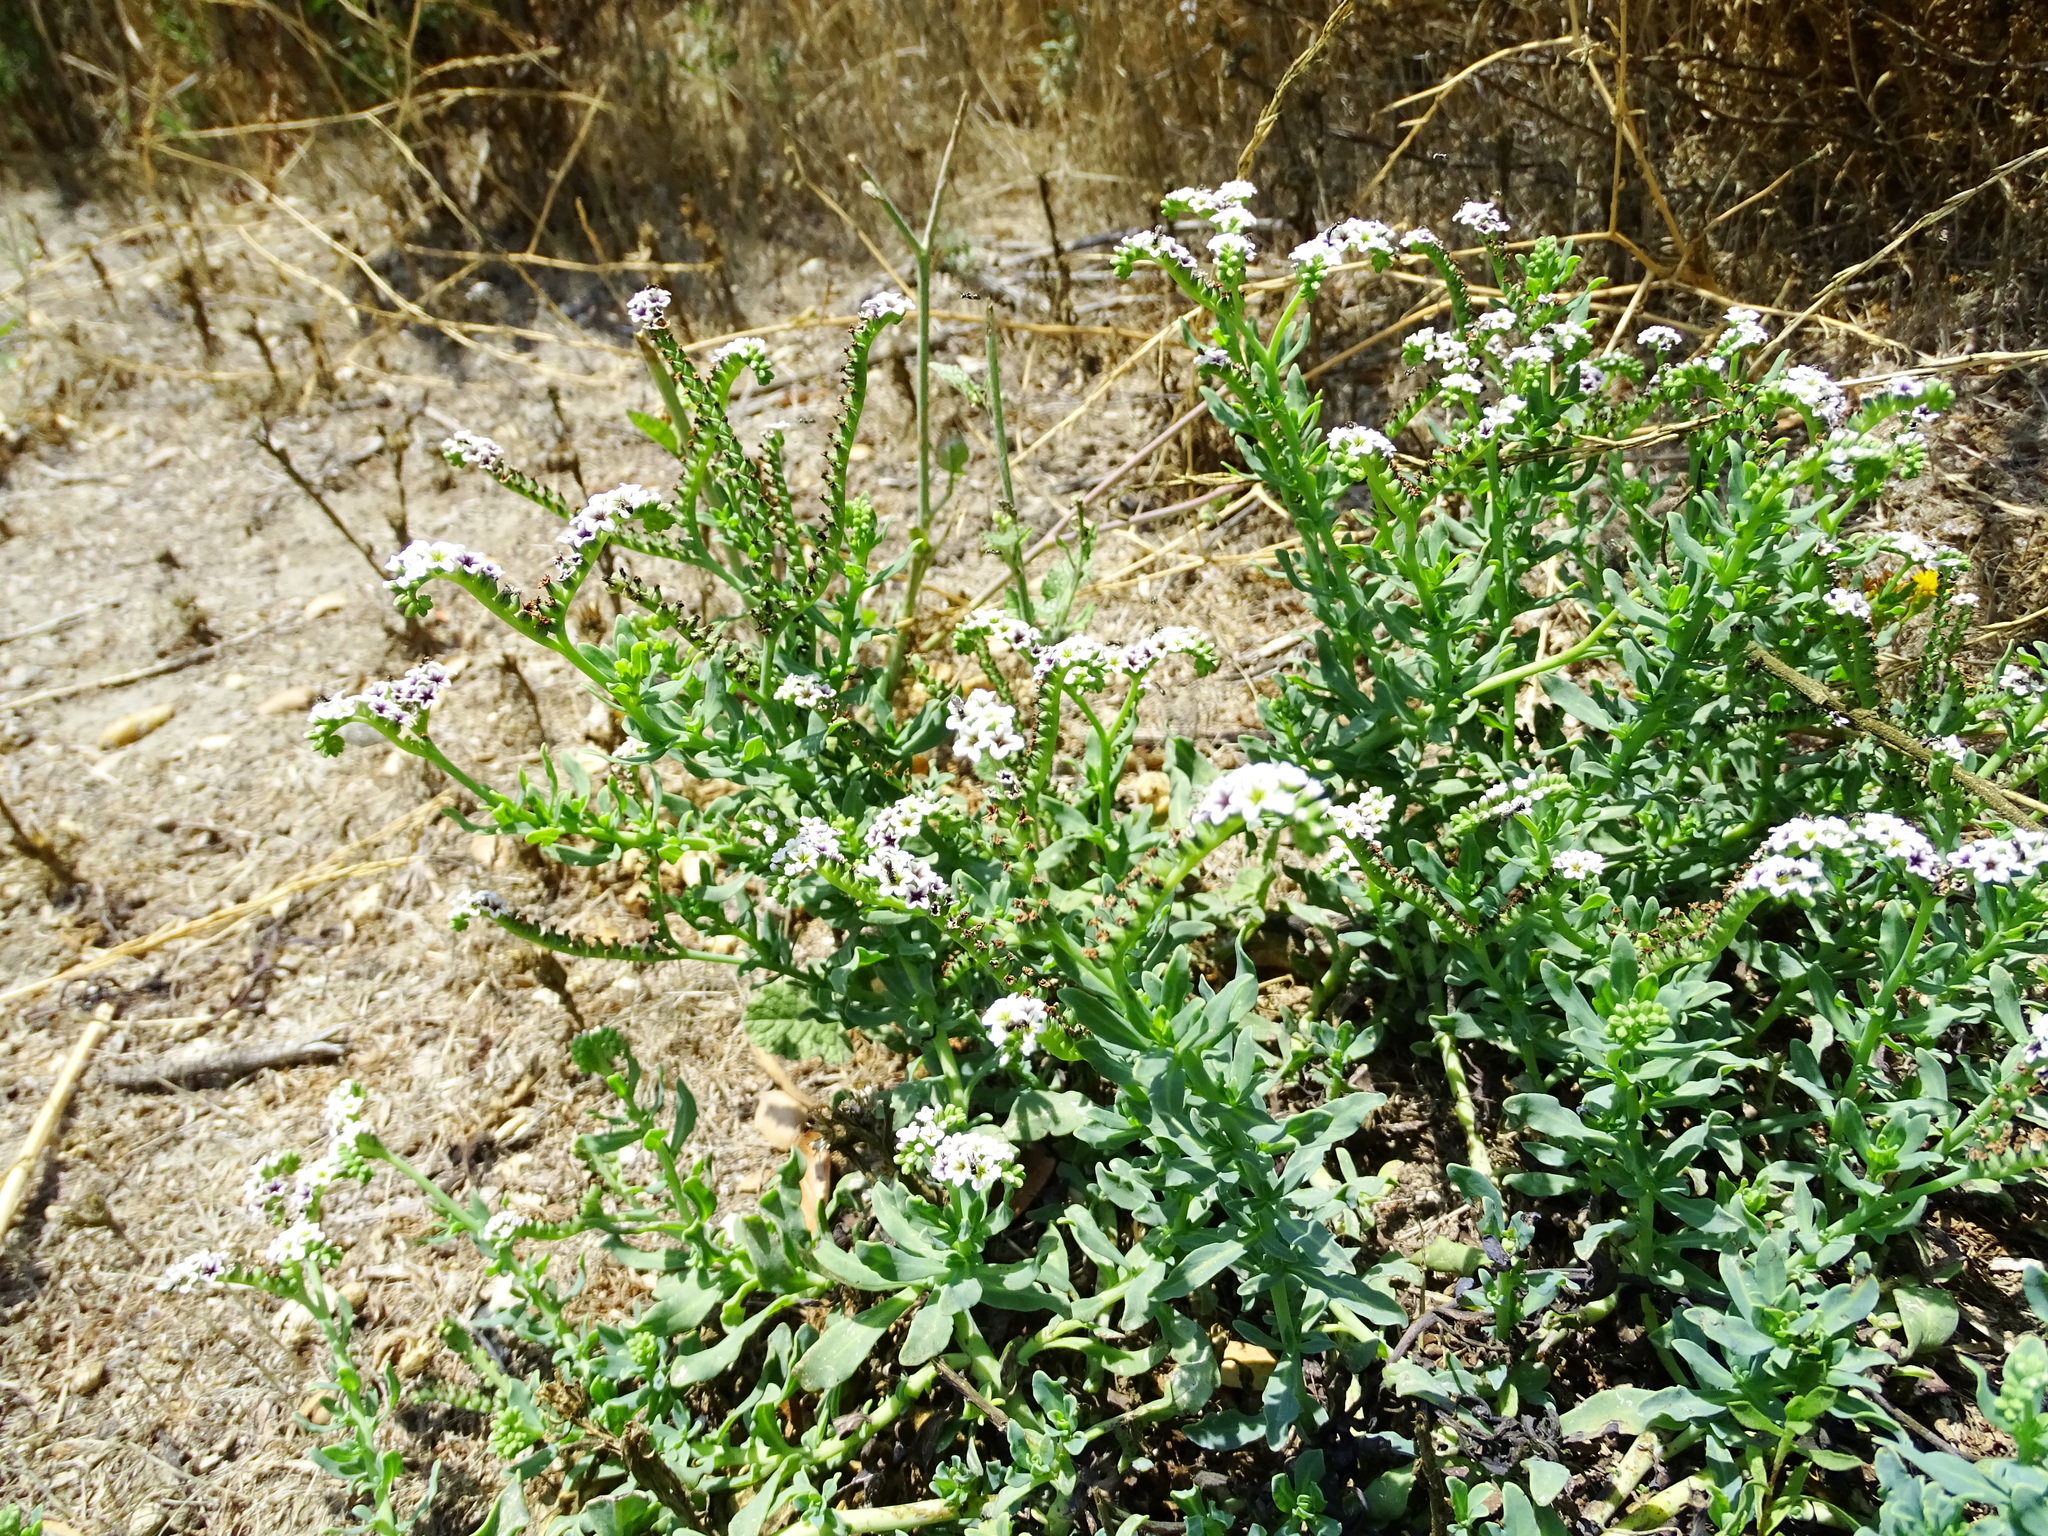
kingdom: Plantae
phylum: Tracheophyta
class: Magnoliopsida
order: Boraginales
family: Heliotropiaceae
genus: Heliotropium
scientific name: Heliotropium curassavicum
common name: Seaside heliotrope
